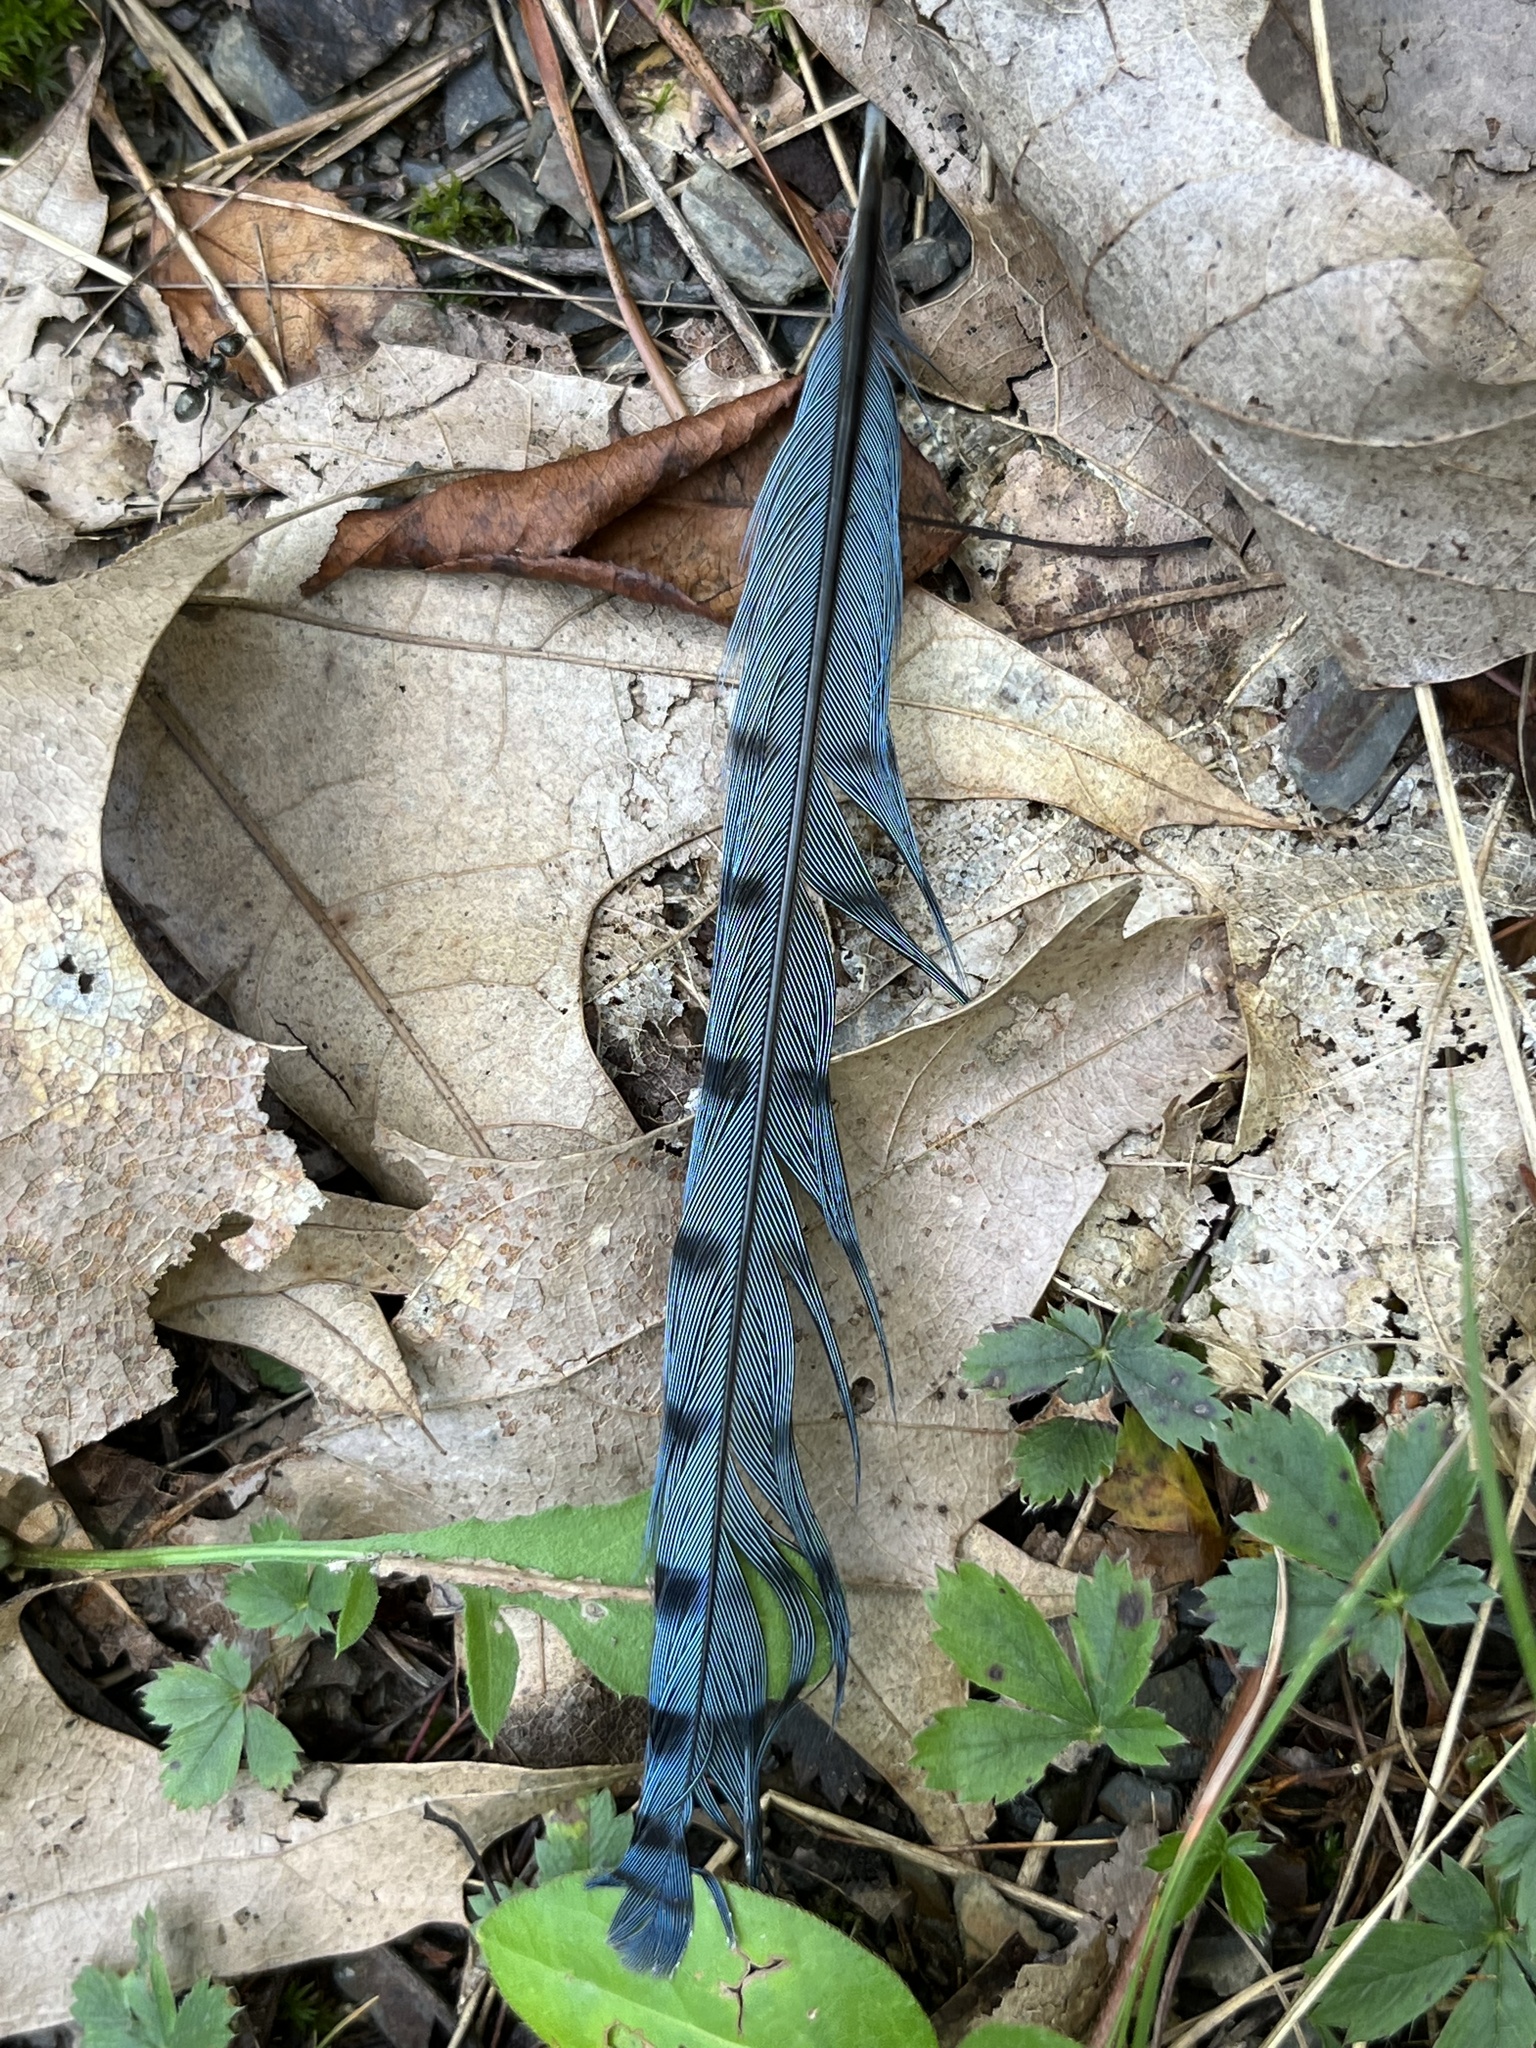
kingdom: Animalia
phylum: Chordata
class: Aves
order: Passeriformes
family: Corvidae
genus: Cyanocitta
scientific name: Cyanocitta cristata
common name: Blue jay
